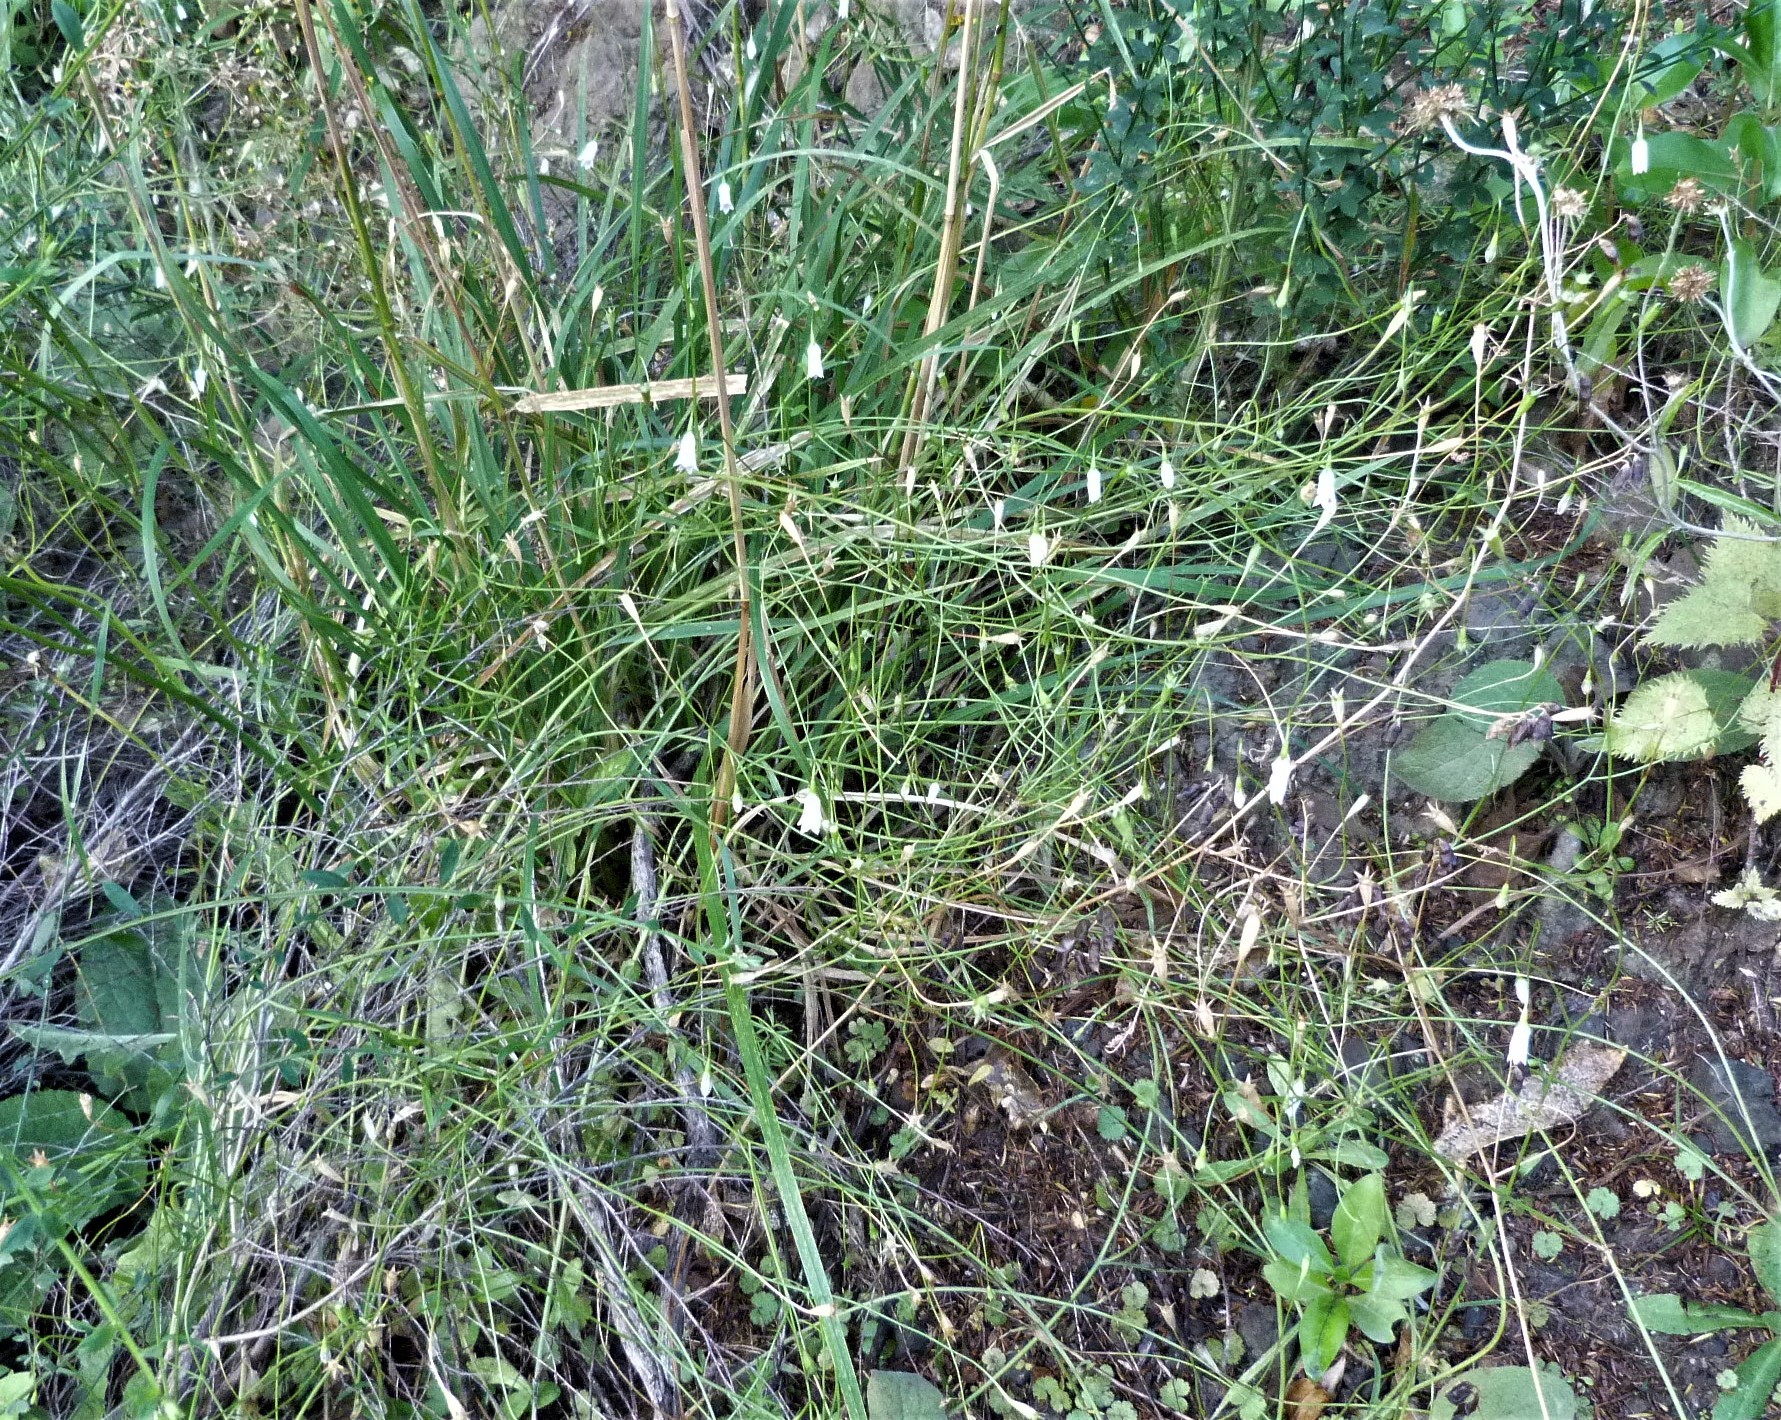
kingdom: Plantae
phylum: Tracheophyta
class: Magnoliopsida
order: Asterales
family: Campanulaceae
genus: Wahlenbergia
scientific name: Wahlenbergia gracilis
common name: Harebell
